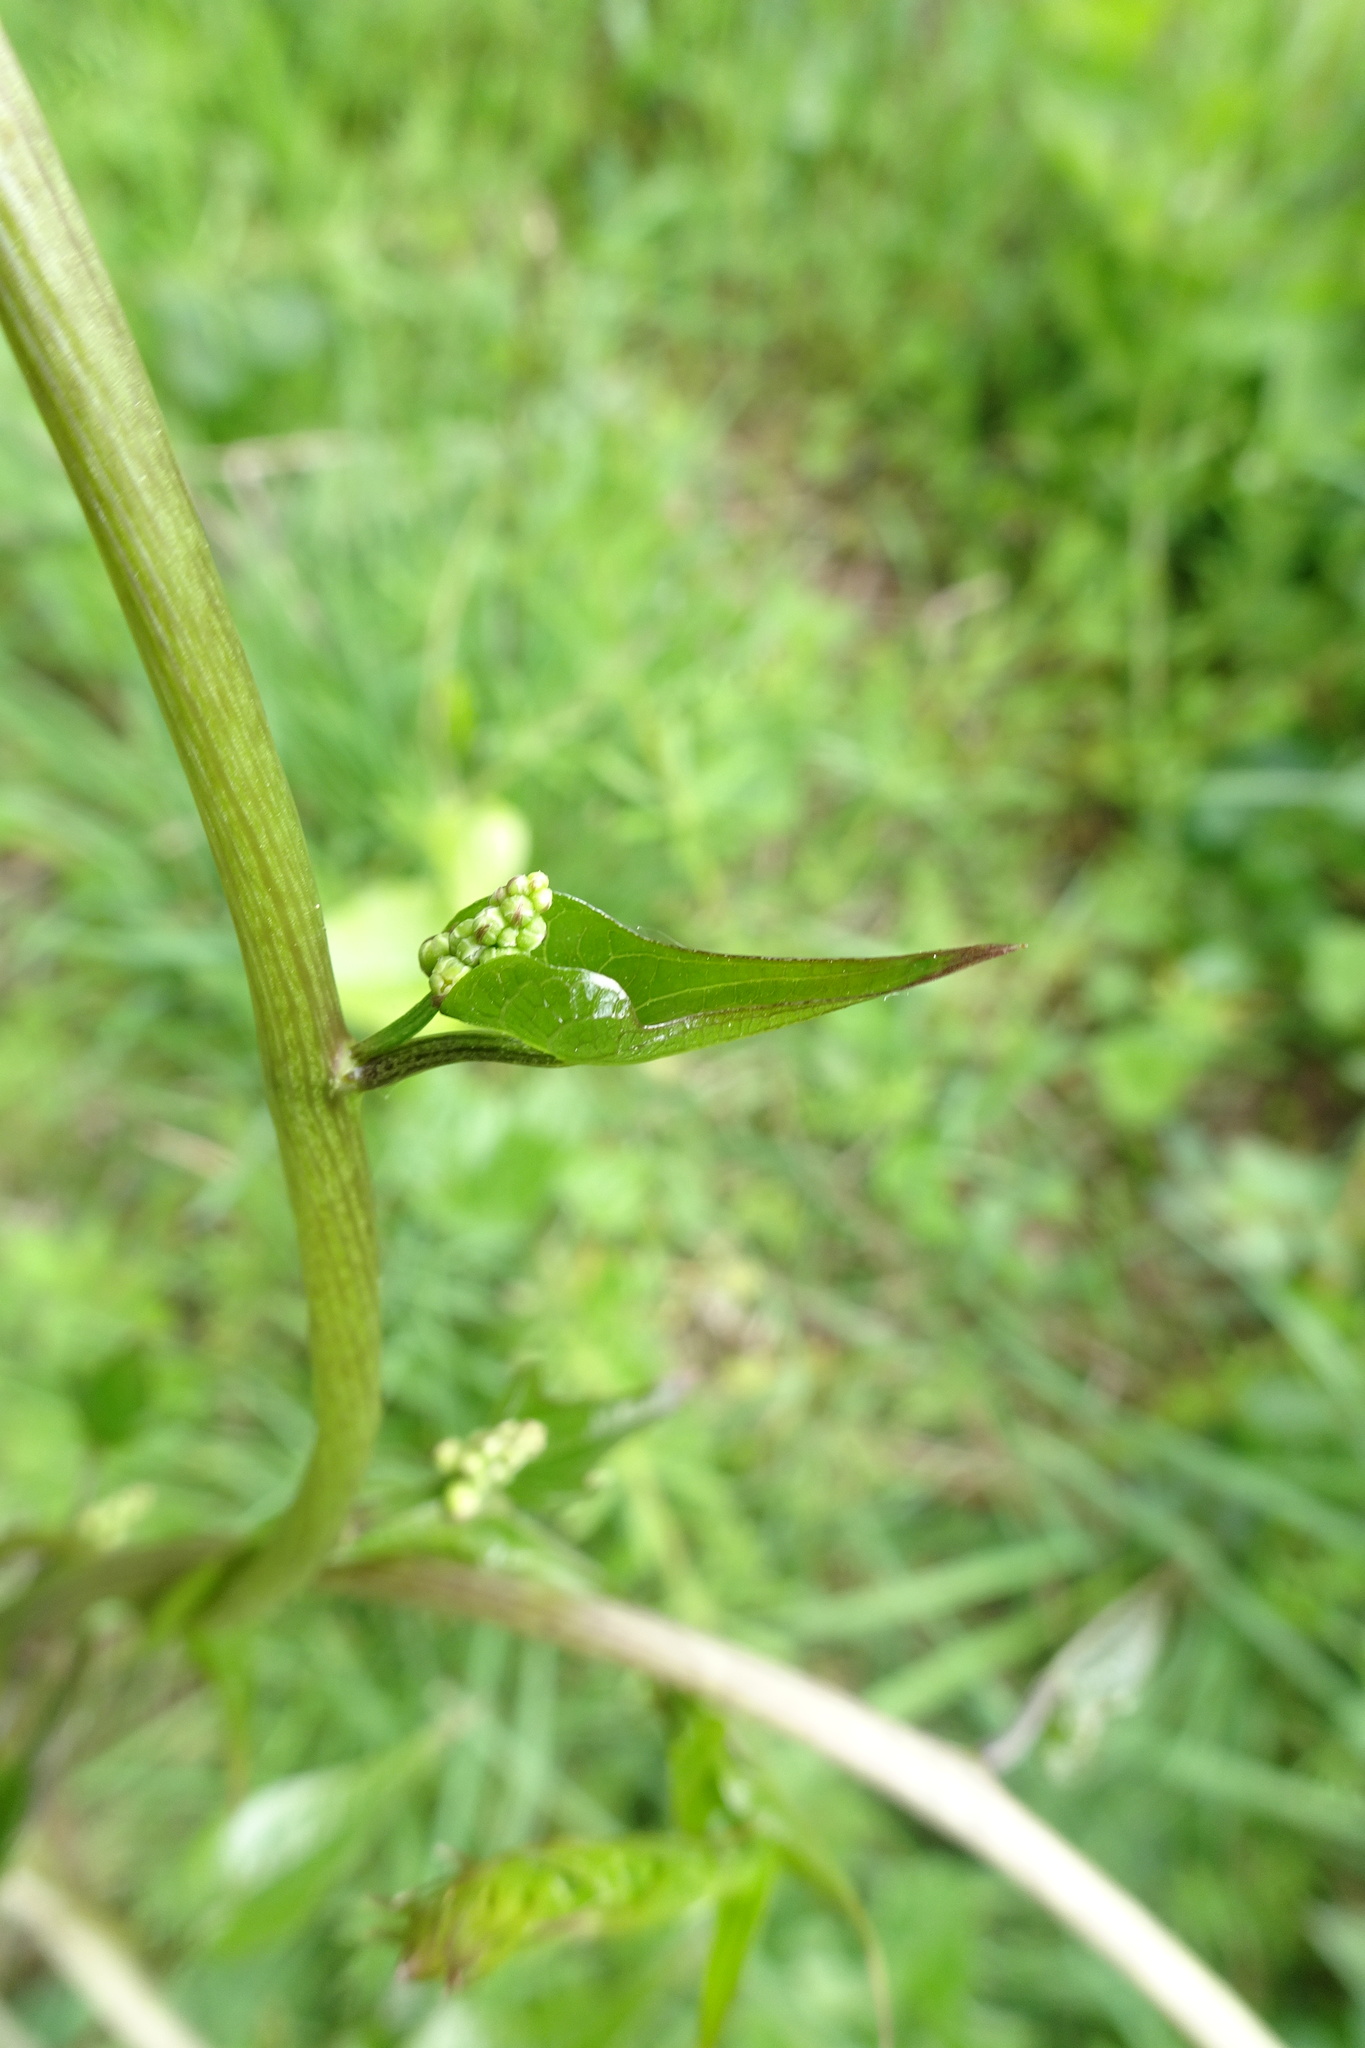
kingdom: Plantae
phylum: Tracheophyta
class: Liliopsida
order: Dioscoreales
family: Dioscoreaceae
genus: Dioscorea
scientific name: Dioscorea communis
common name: Black-bindweed
